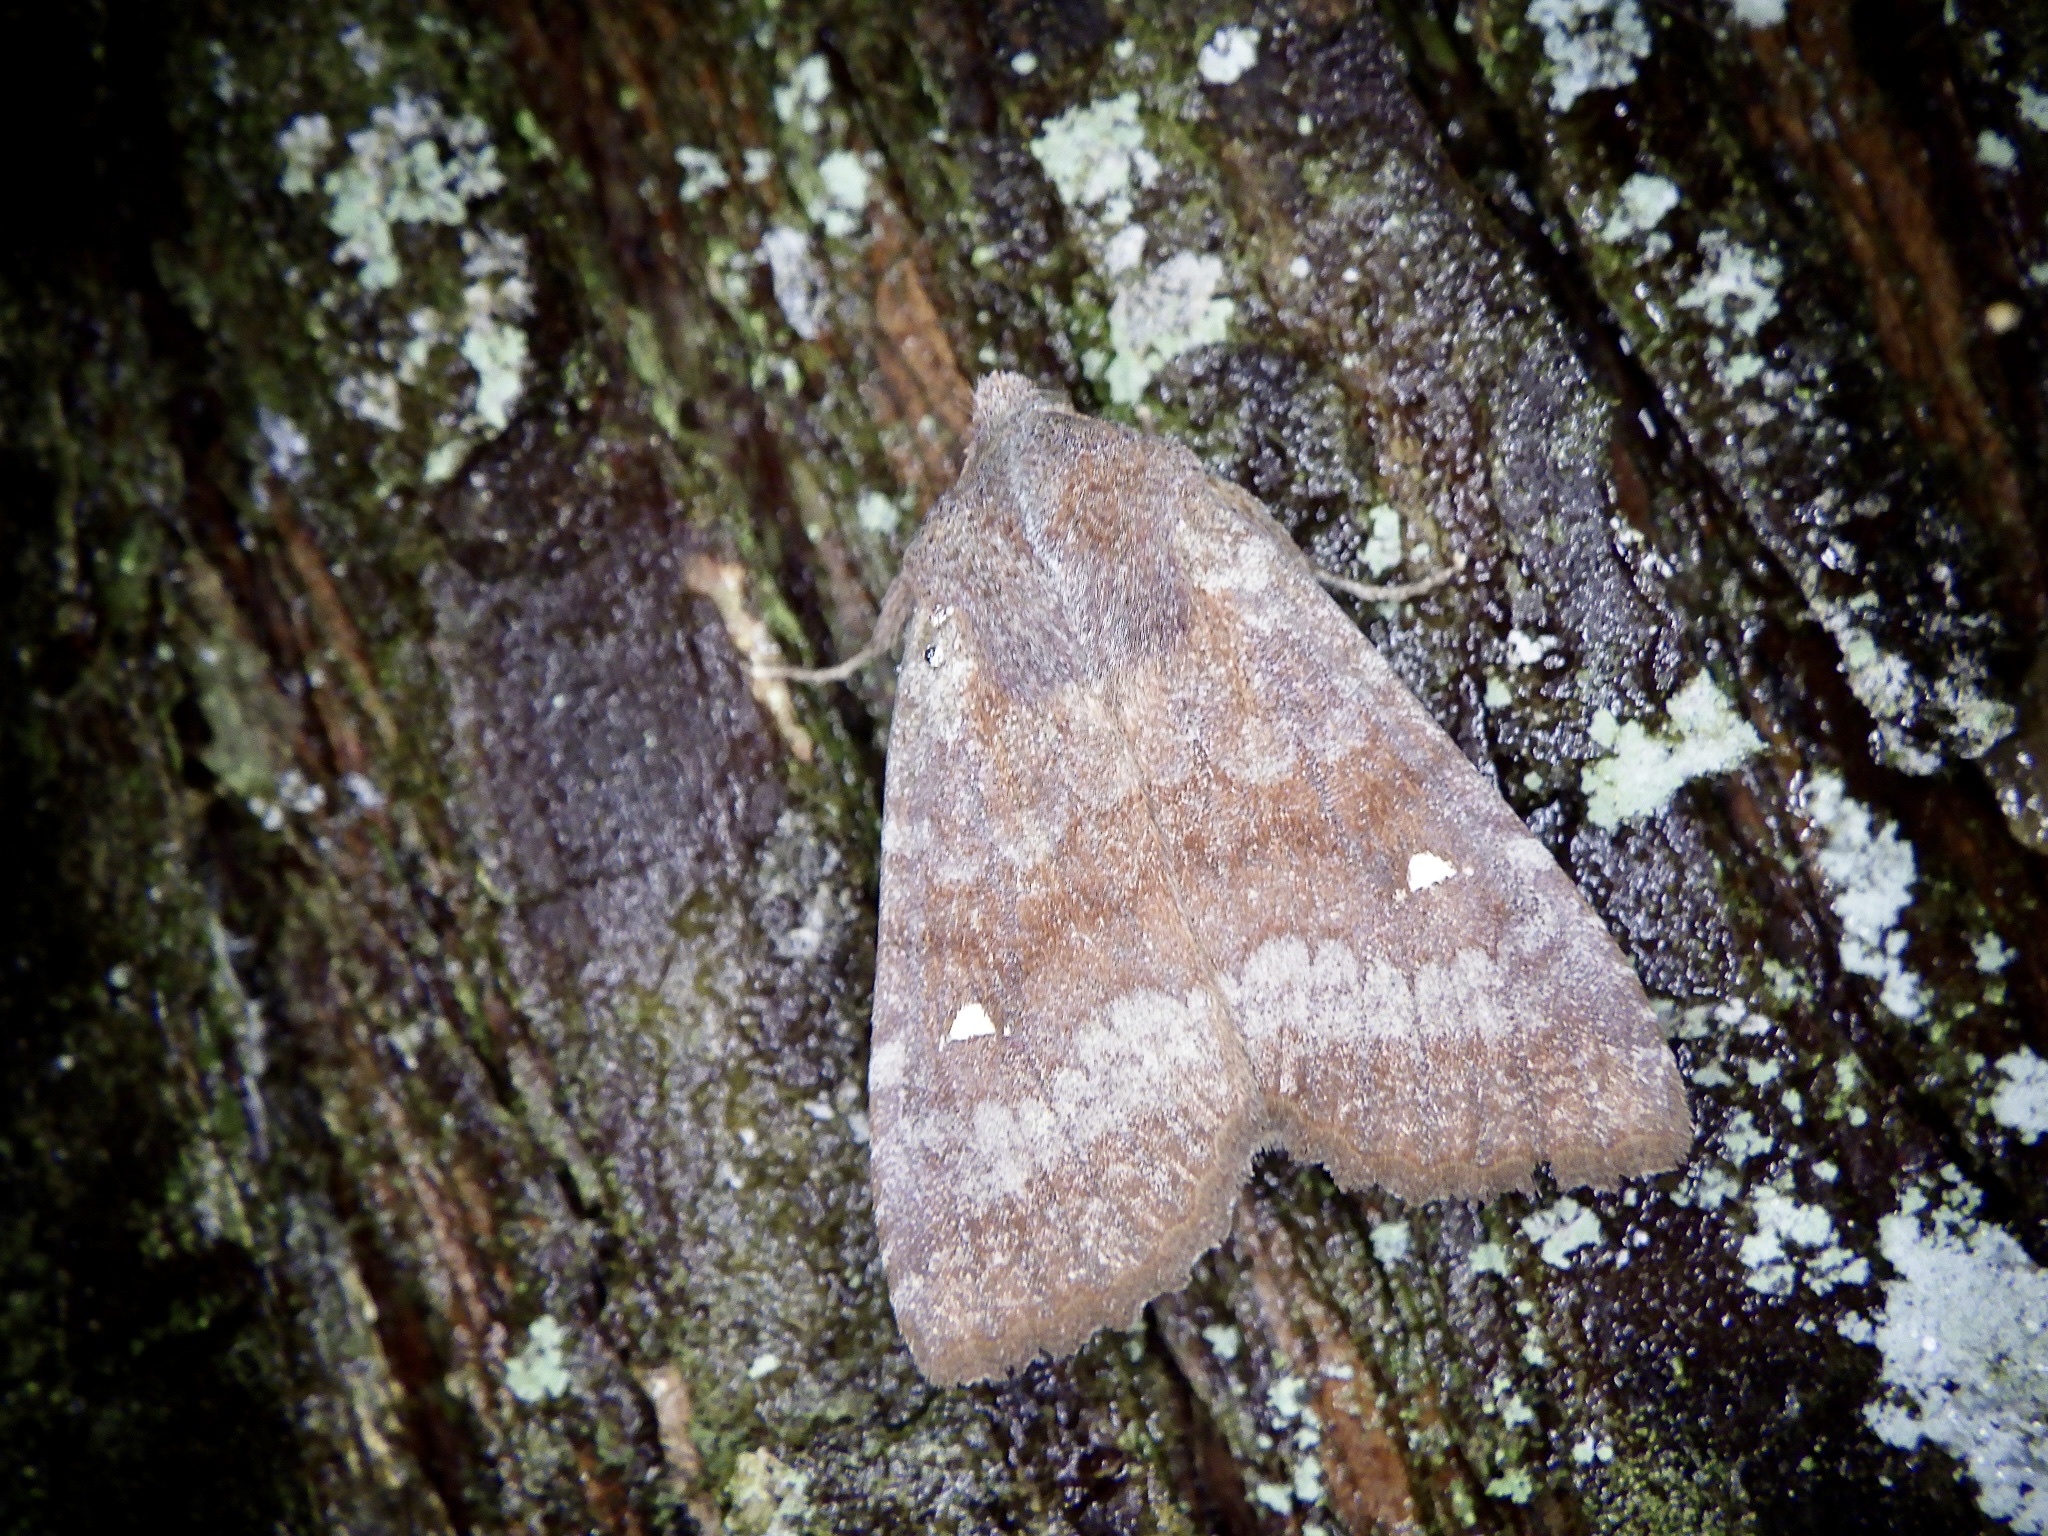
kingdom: Animalia
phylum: Arthropoda
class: Insecta
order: Lepidoptera
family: Noctuidae
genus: Eupsilia
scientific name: Eupsilia unipuncta
